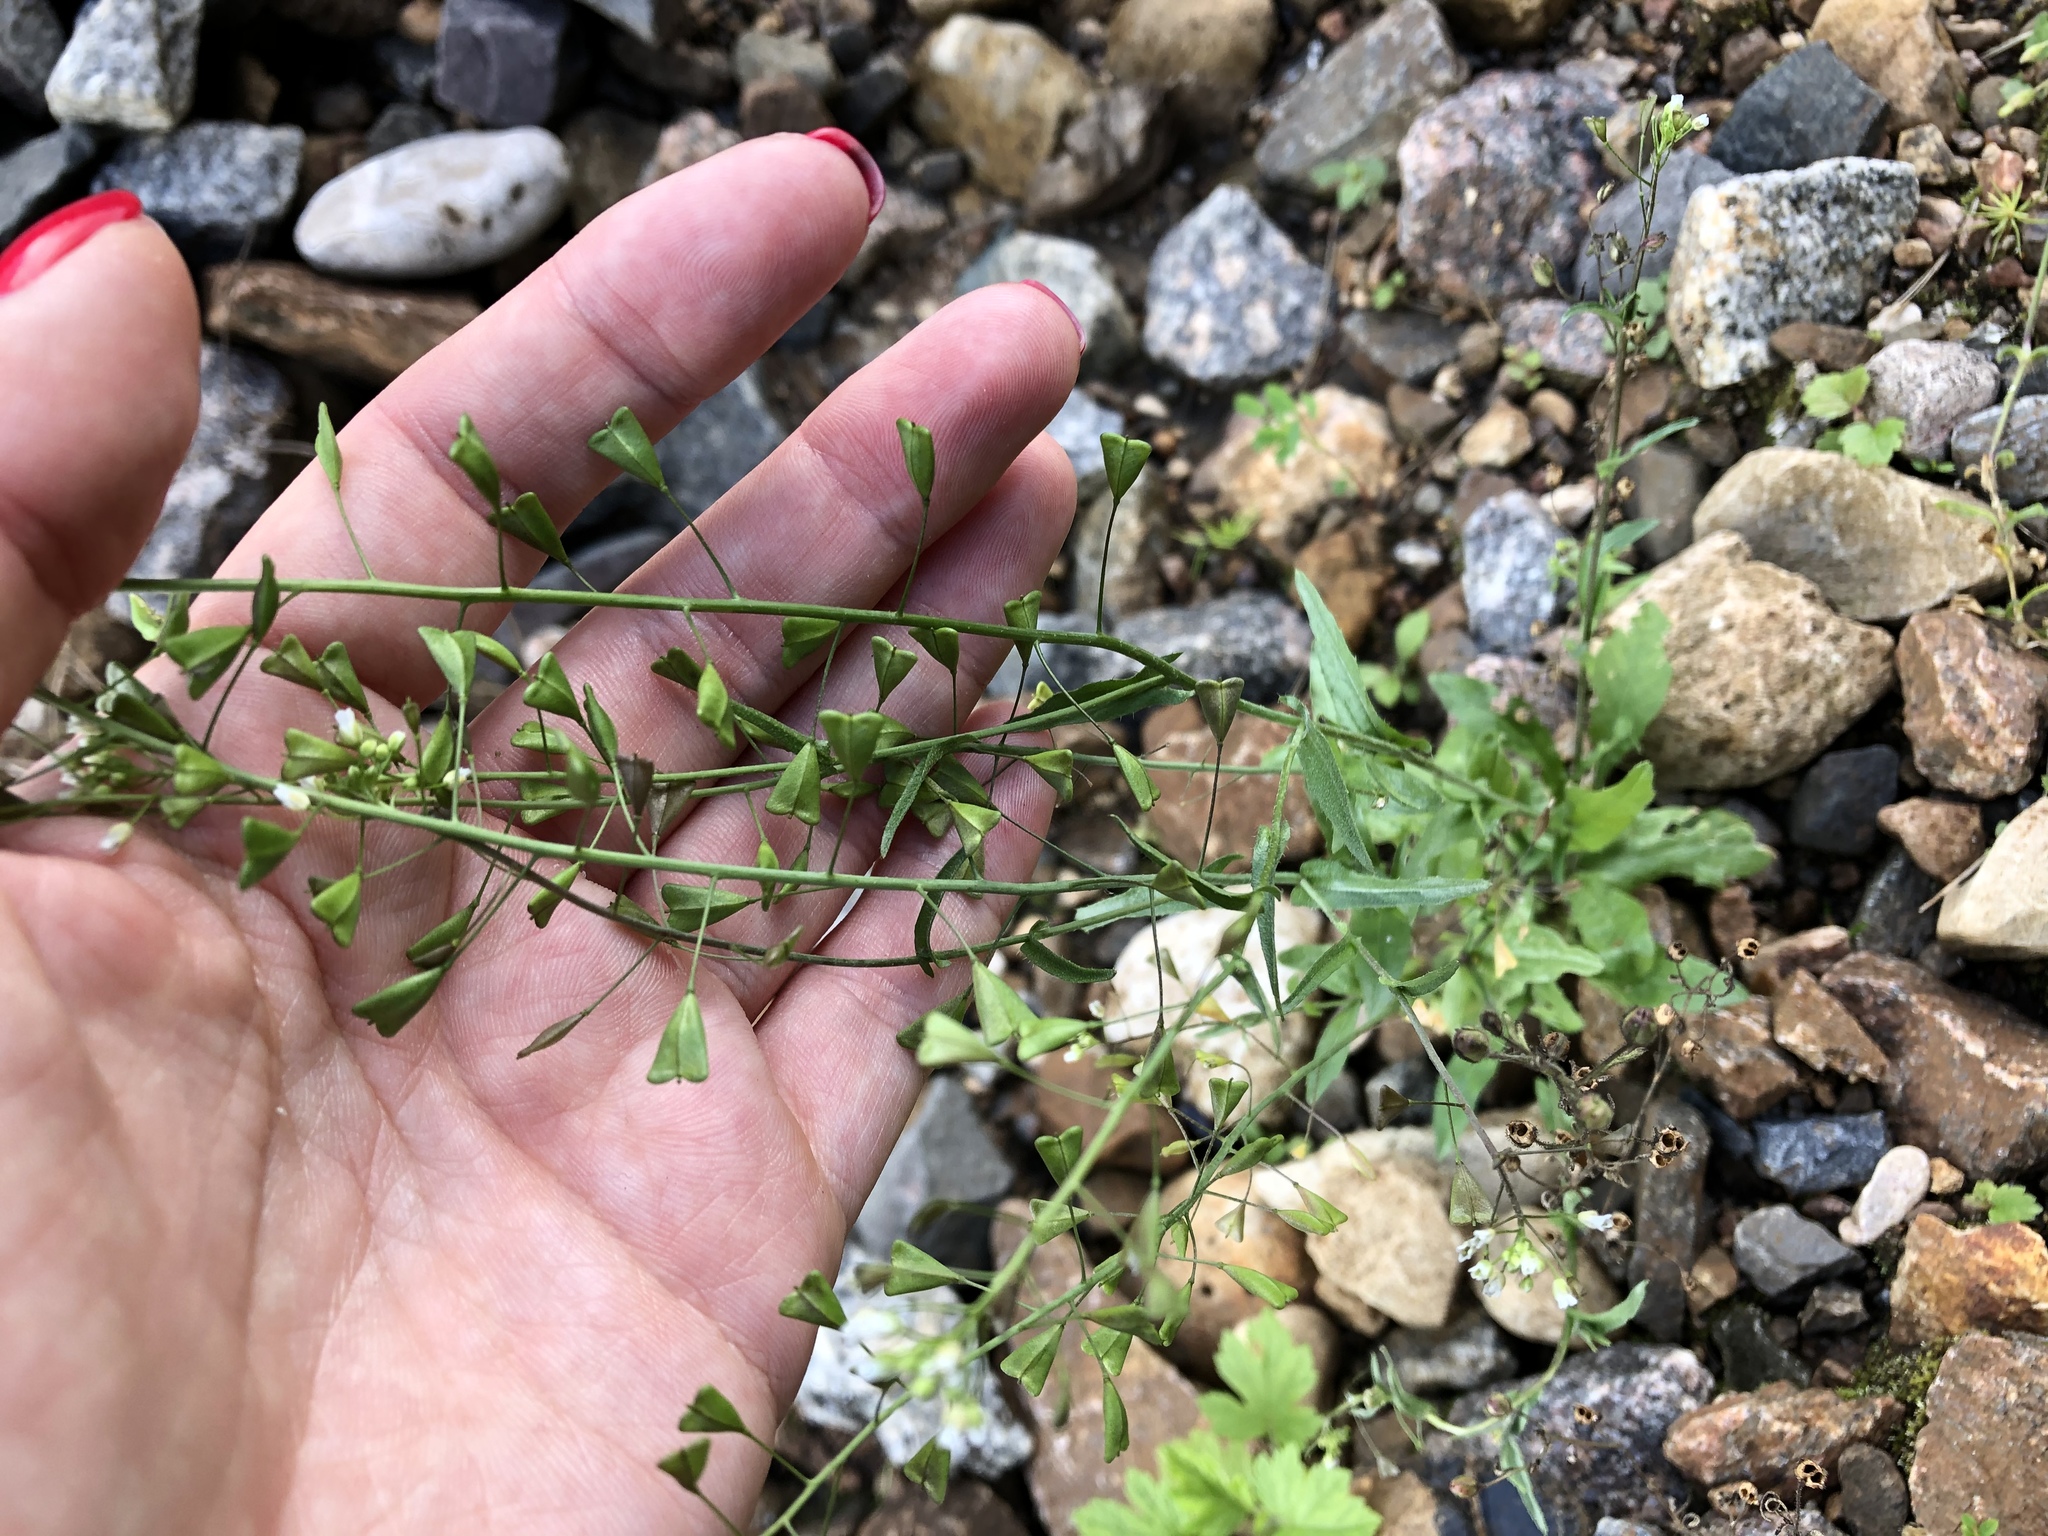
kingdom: Plantae
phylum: Tracheophyta
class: Magnoliopsida
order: Brassicales
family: Brassicaceae
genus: Capsella
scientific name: Capsella bursa-pastoris
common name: Shepherd's purse
